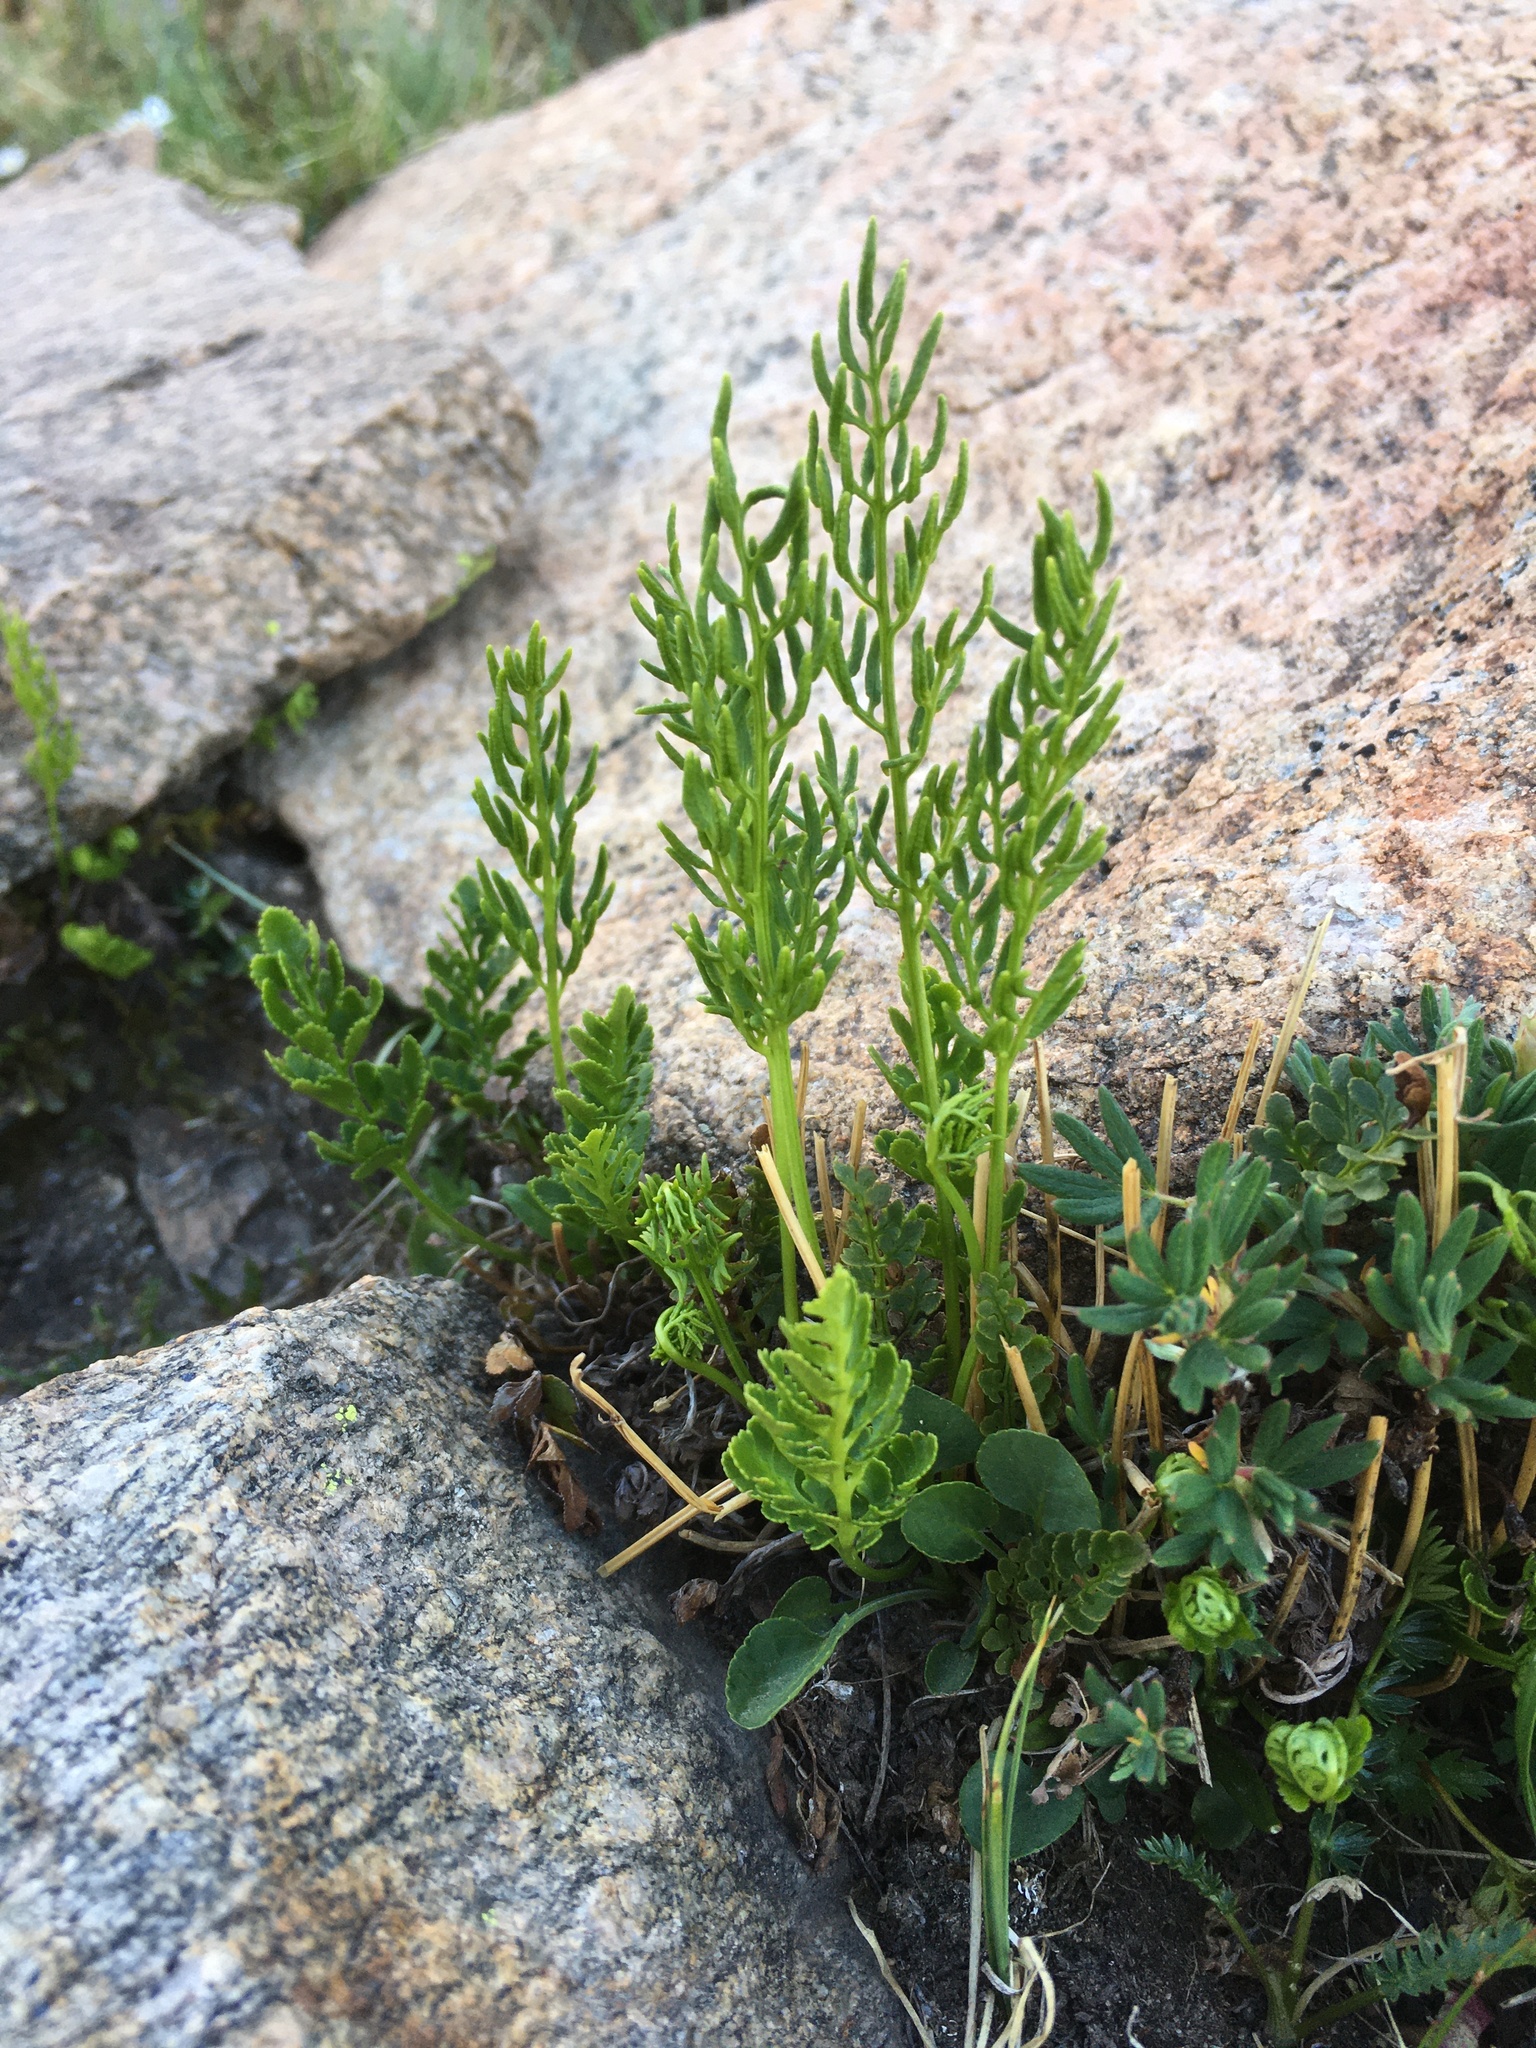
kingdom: Plantae
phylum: Tracheophyta
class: Polypodiopsida
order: Polypodiales
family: Pteridaceae
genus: Cryptogramma
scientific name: Cryptogramma acrostichoides
